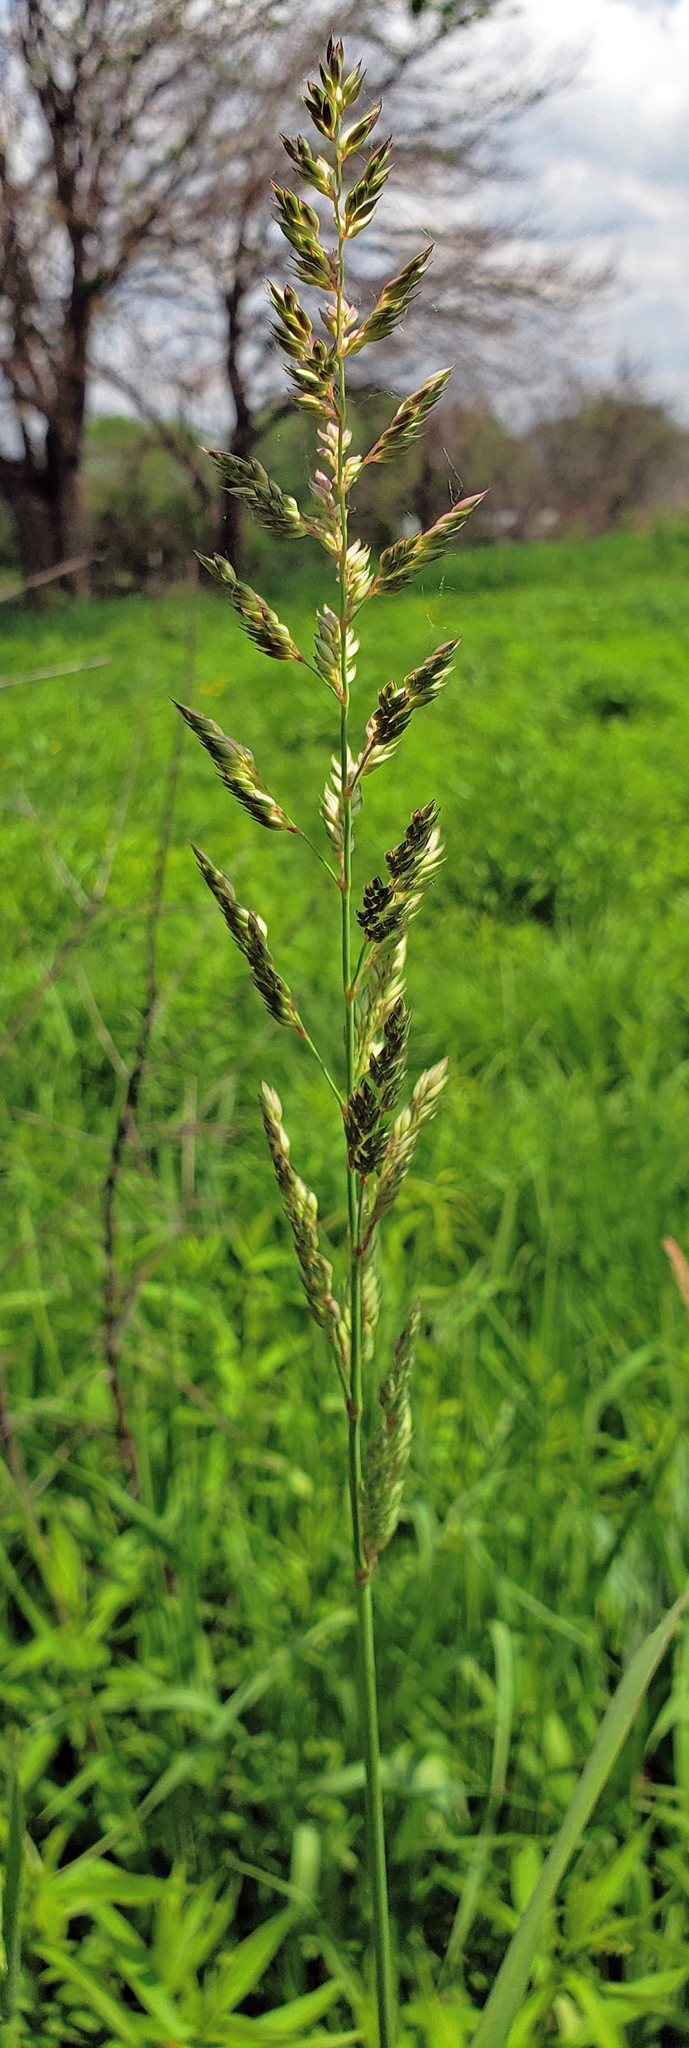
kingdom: Plantae
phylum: Tracheophyta
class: Liliopsida
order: Poales
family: Poaceae
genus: Phalaris
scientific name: Phalaris arundinacea
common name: Reed canary-grass
